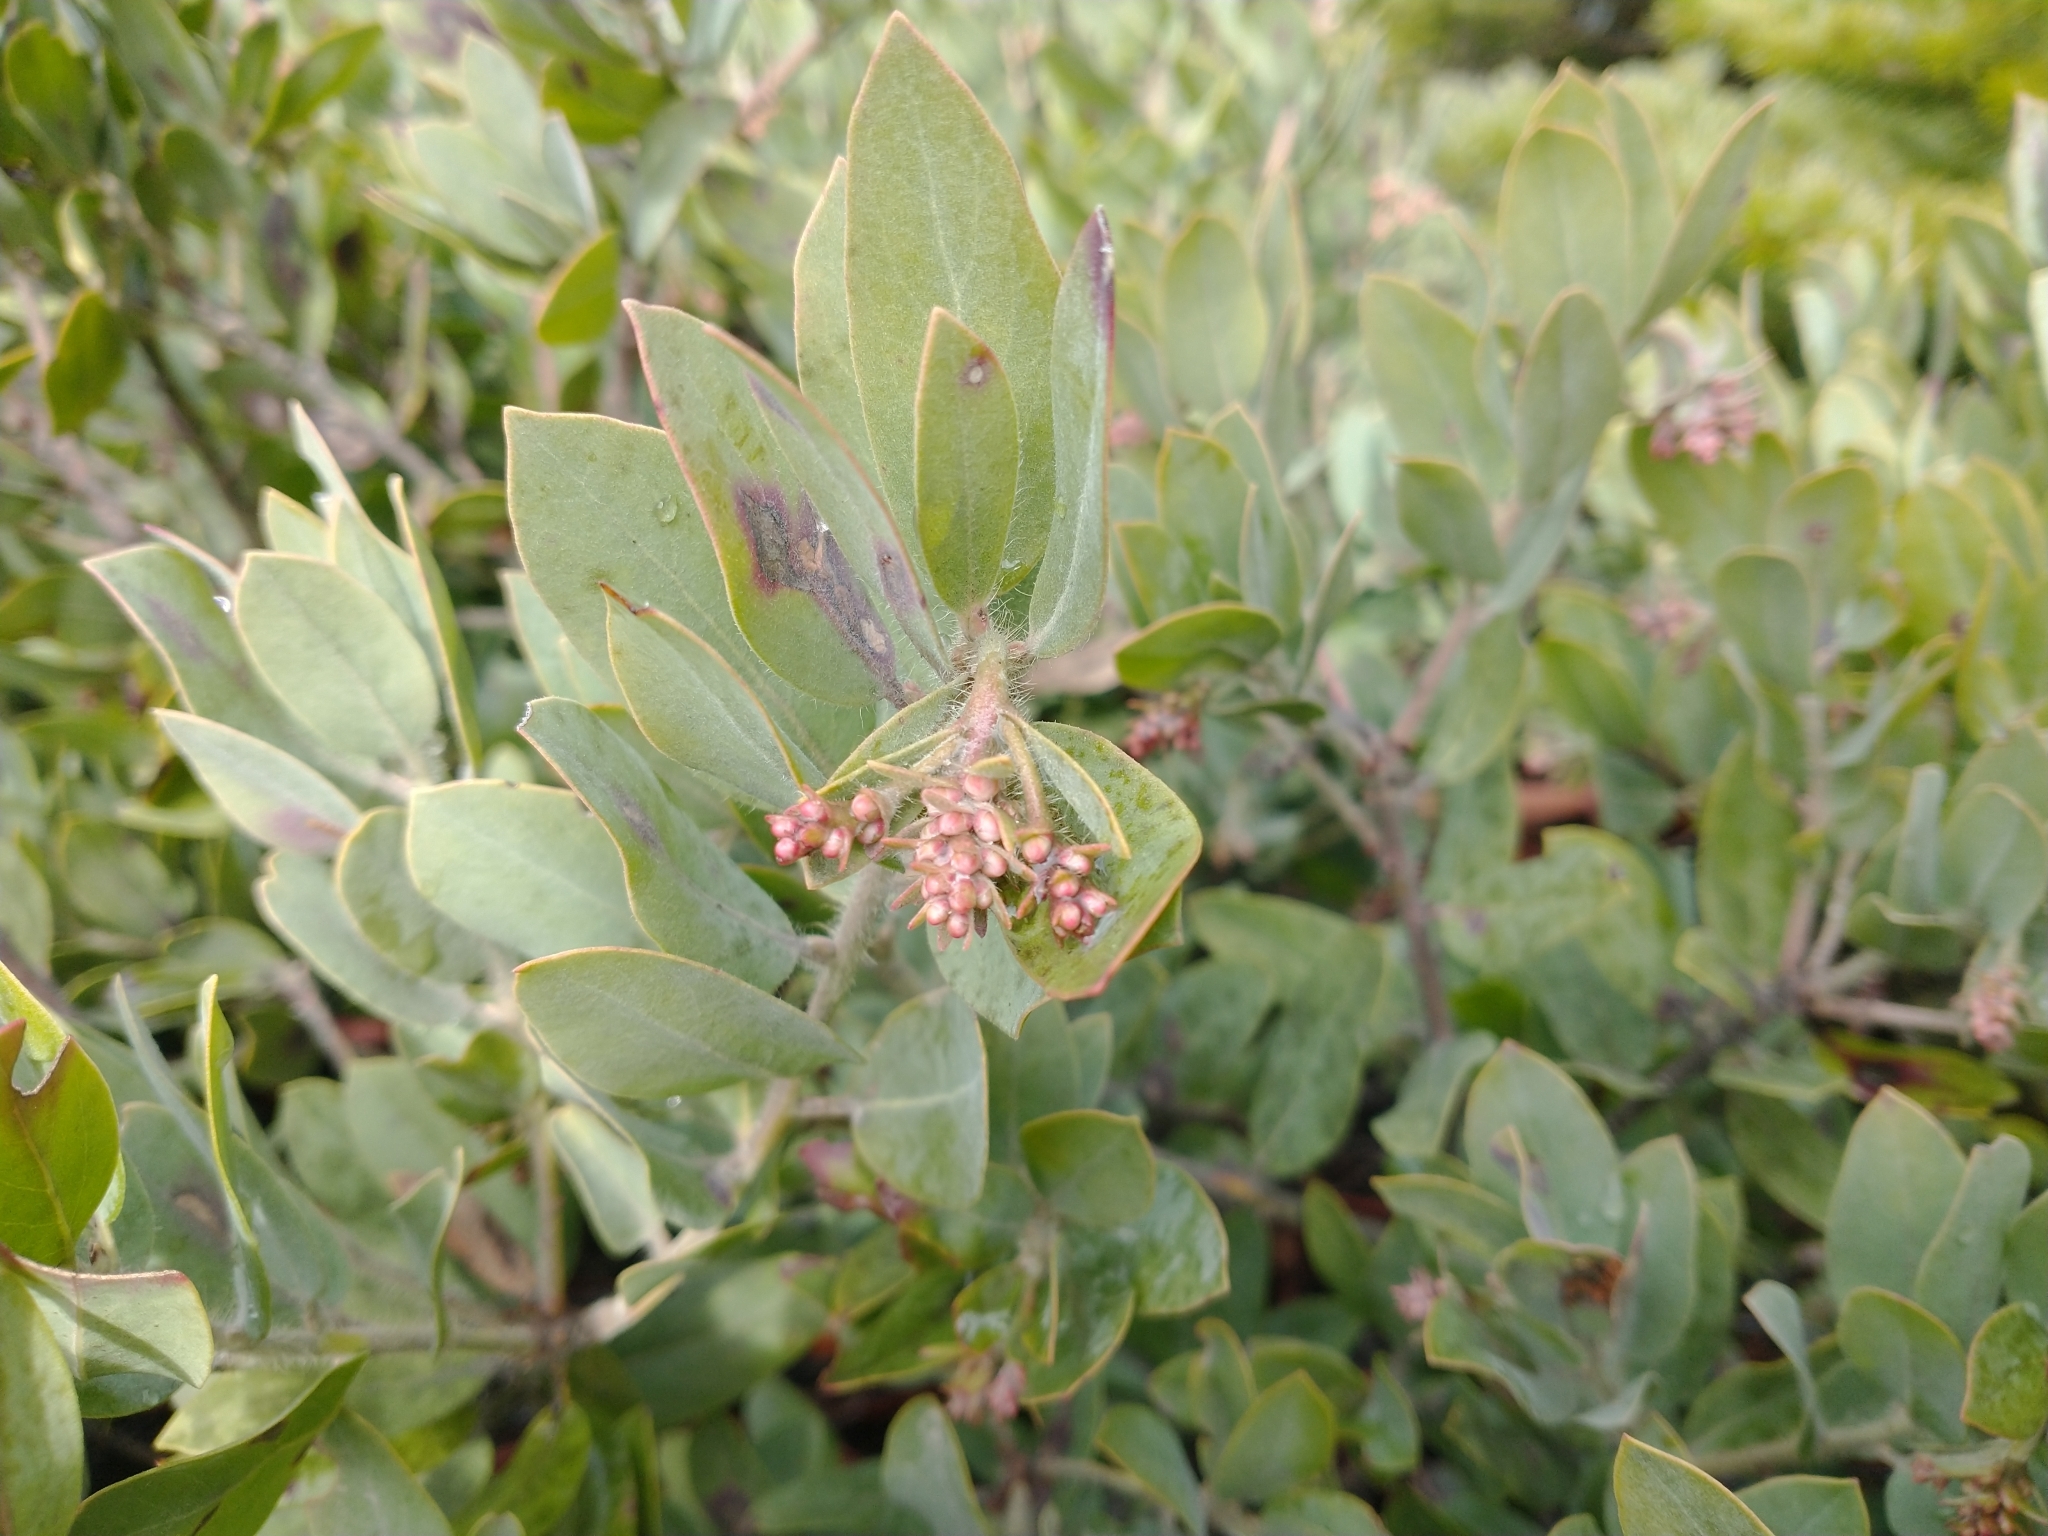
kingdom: Plantae
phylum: Tracheophyta
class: Magnoliopsida
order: Ericales
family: Ericaceae
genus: Arctostaphylos
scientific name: Arctostaphylos columbiana
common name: Bristly bearberry
